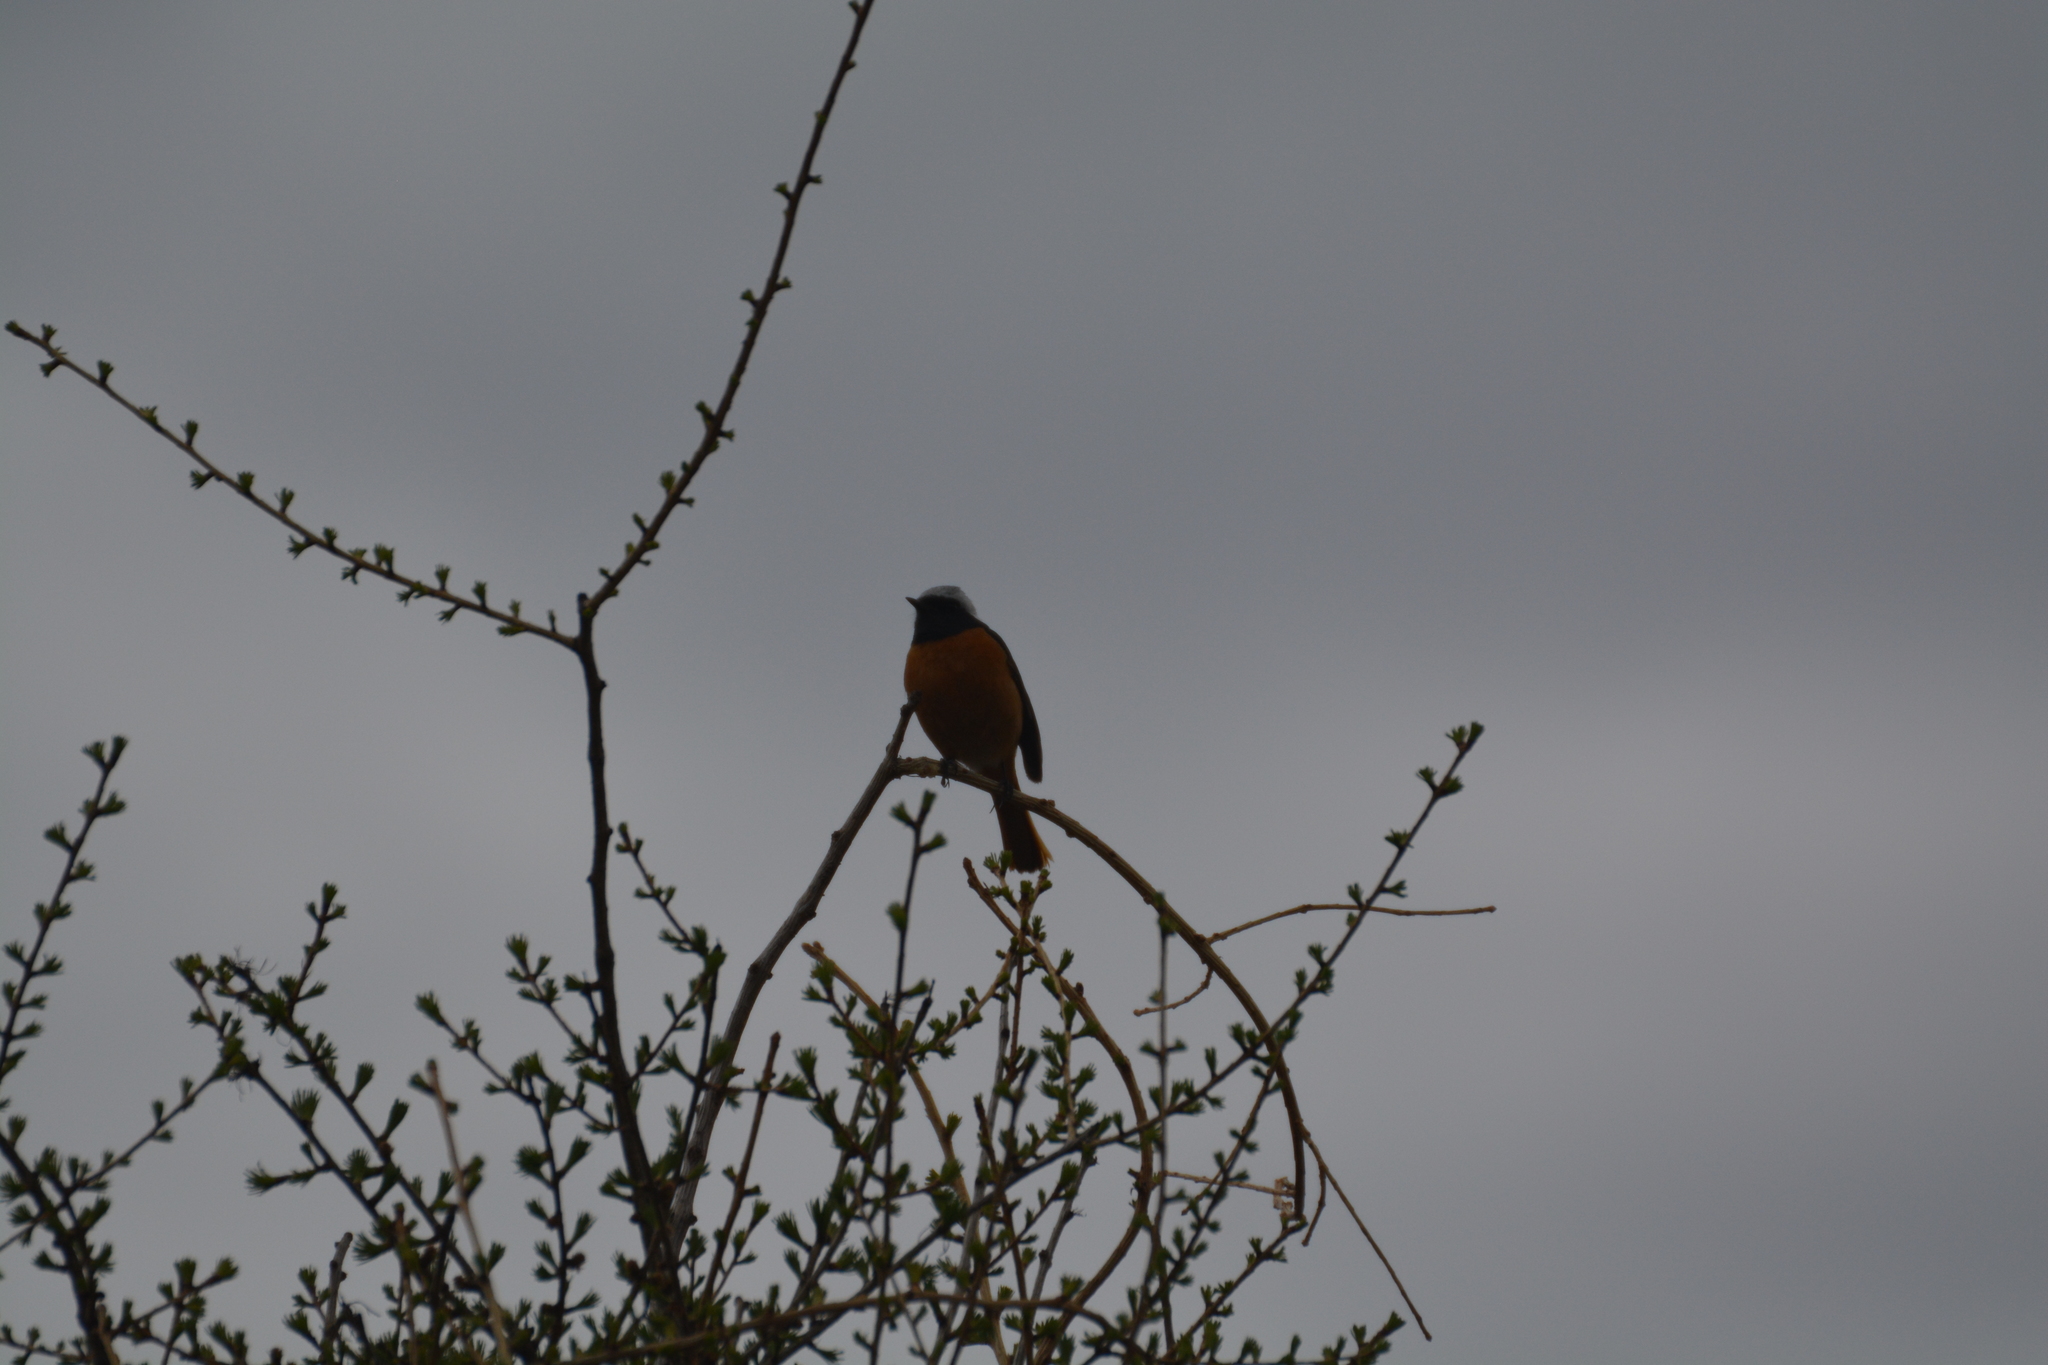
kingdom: Animalia
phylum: Chordata
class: Aves
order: Passeriformes
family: Muscicapidae
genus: Phoenicurus
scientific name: Phoenicurus auroreus
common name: Daurian redstart
